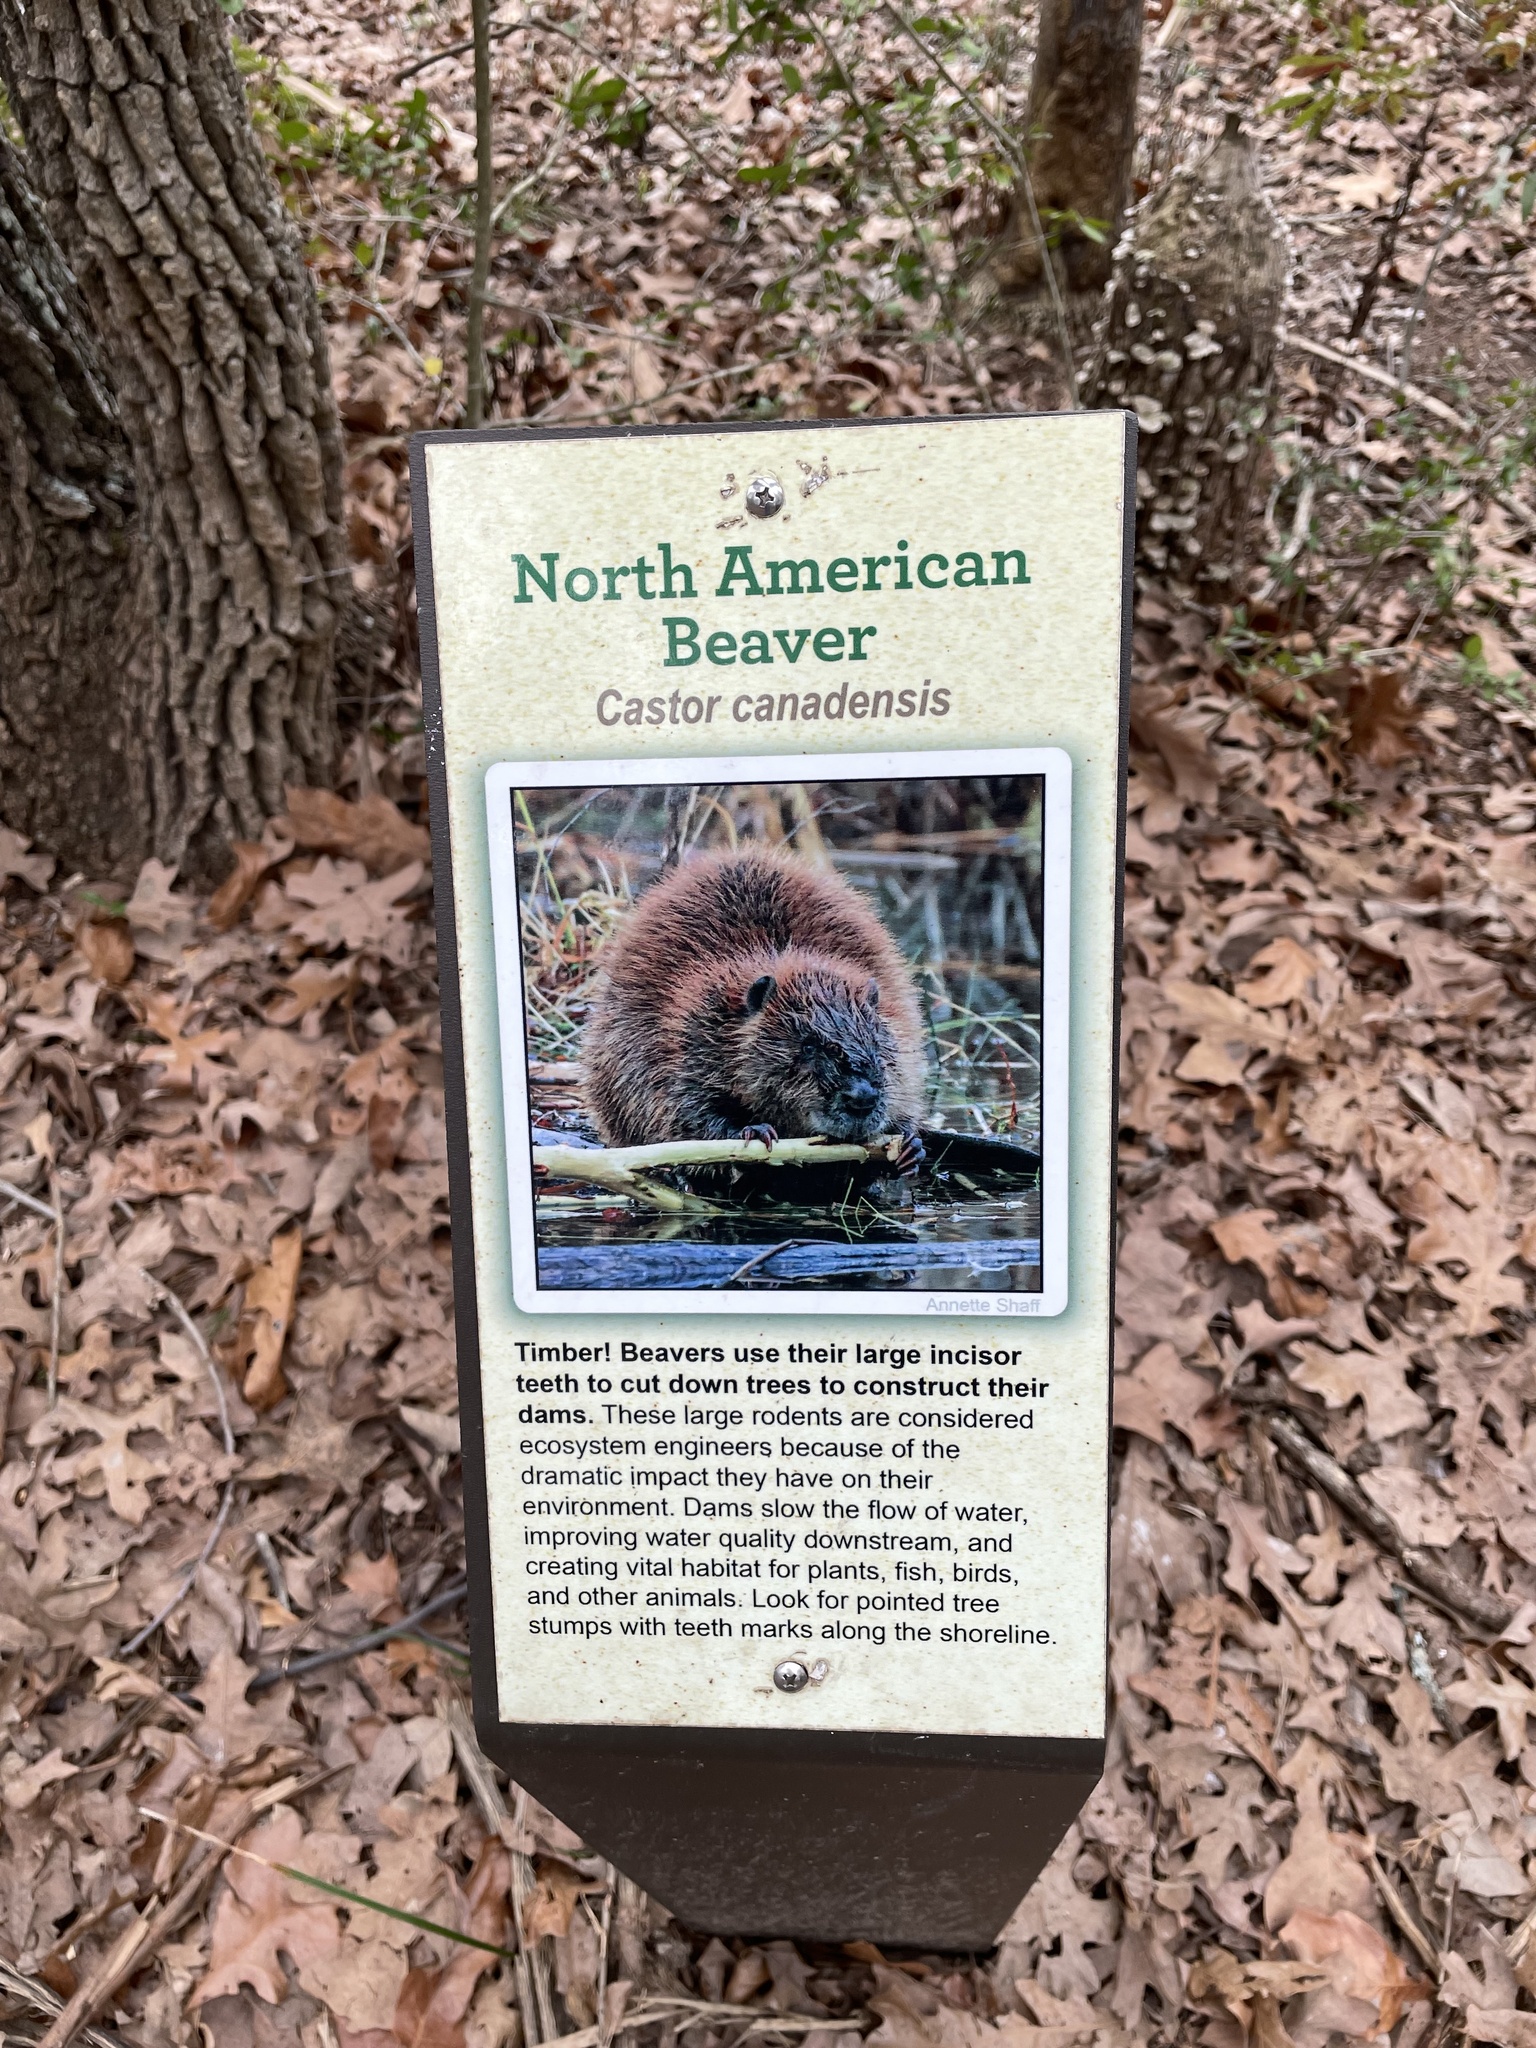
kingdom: Animalia
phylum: Chordata
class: Mammalia
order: Rodentia
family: Castoridae
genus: Castor
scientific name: Castor canadensis
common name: American beaver
